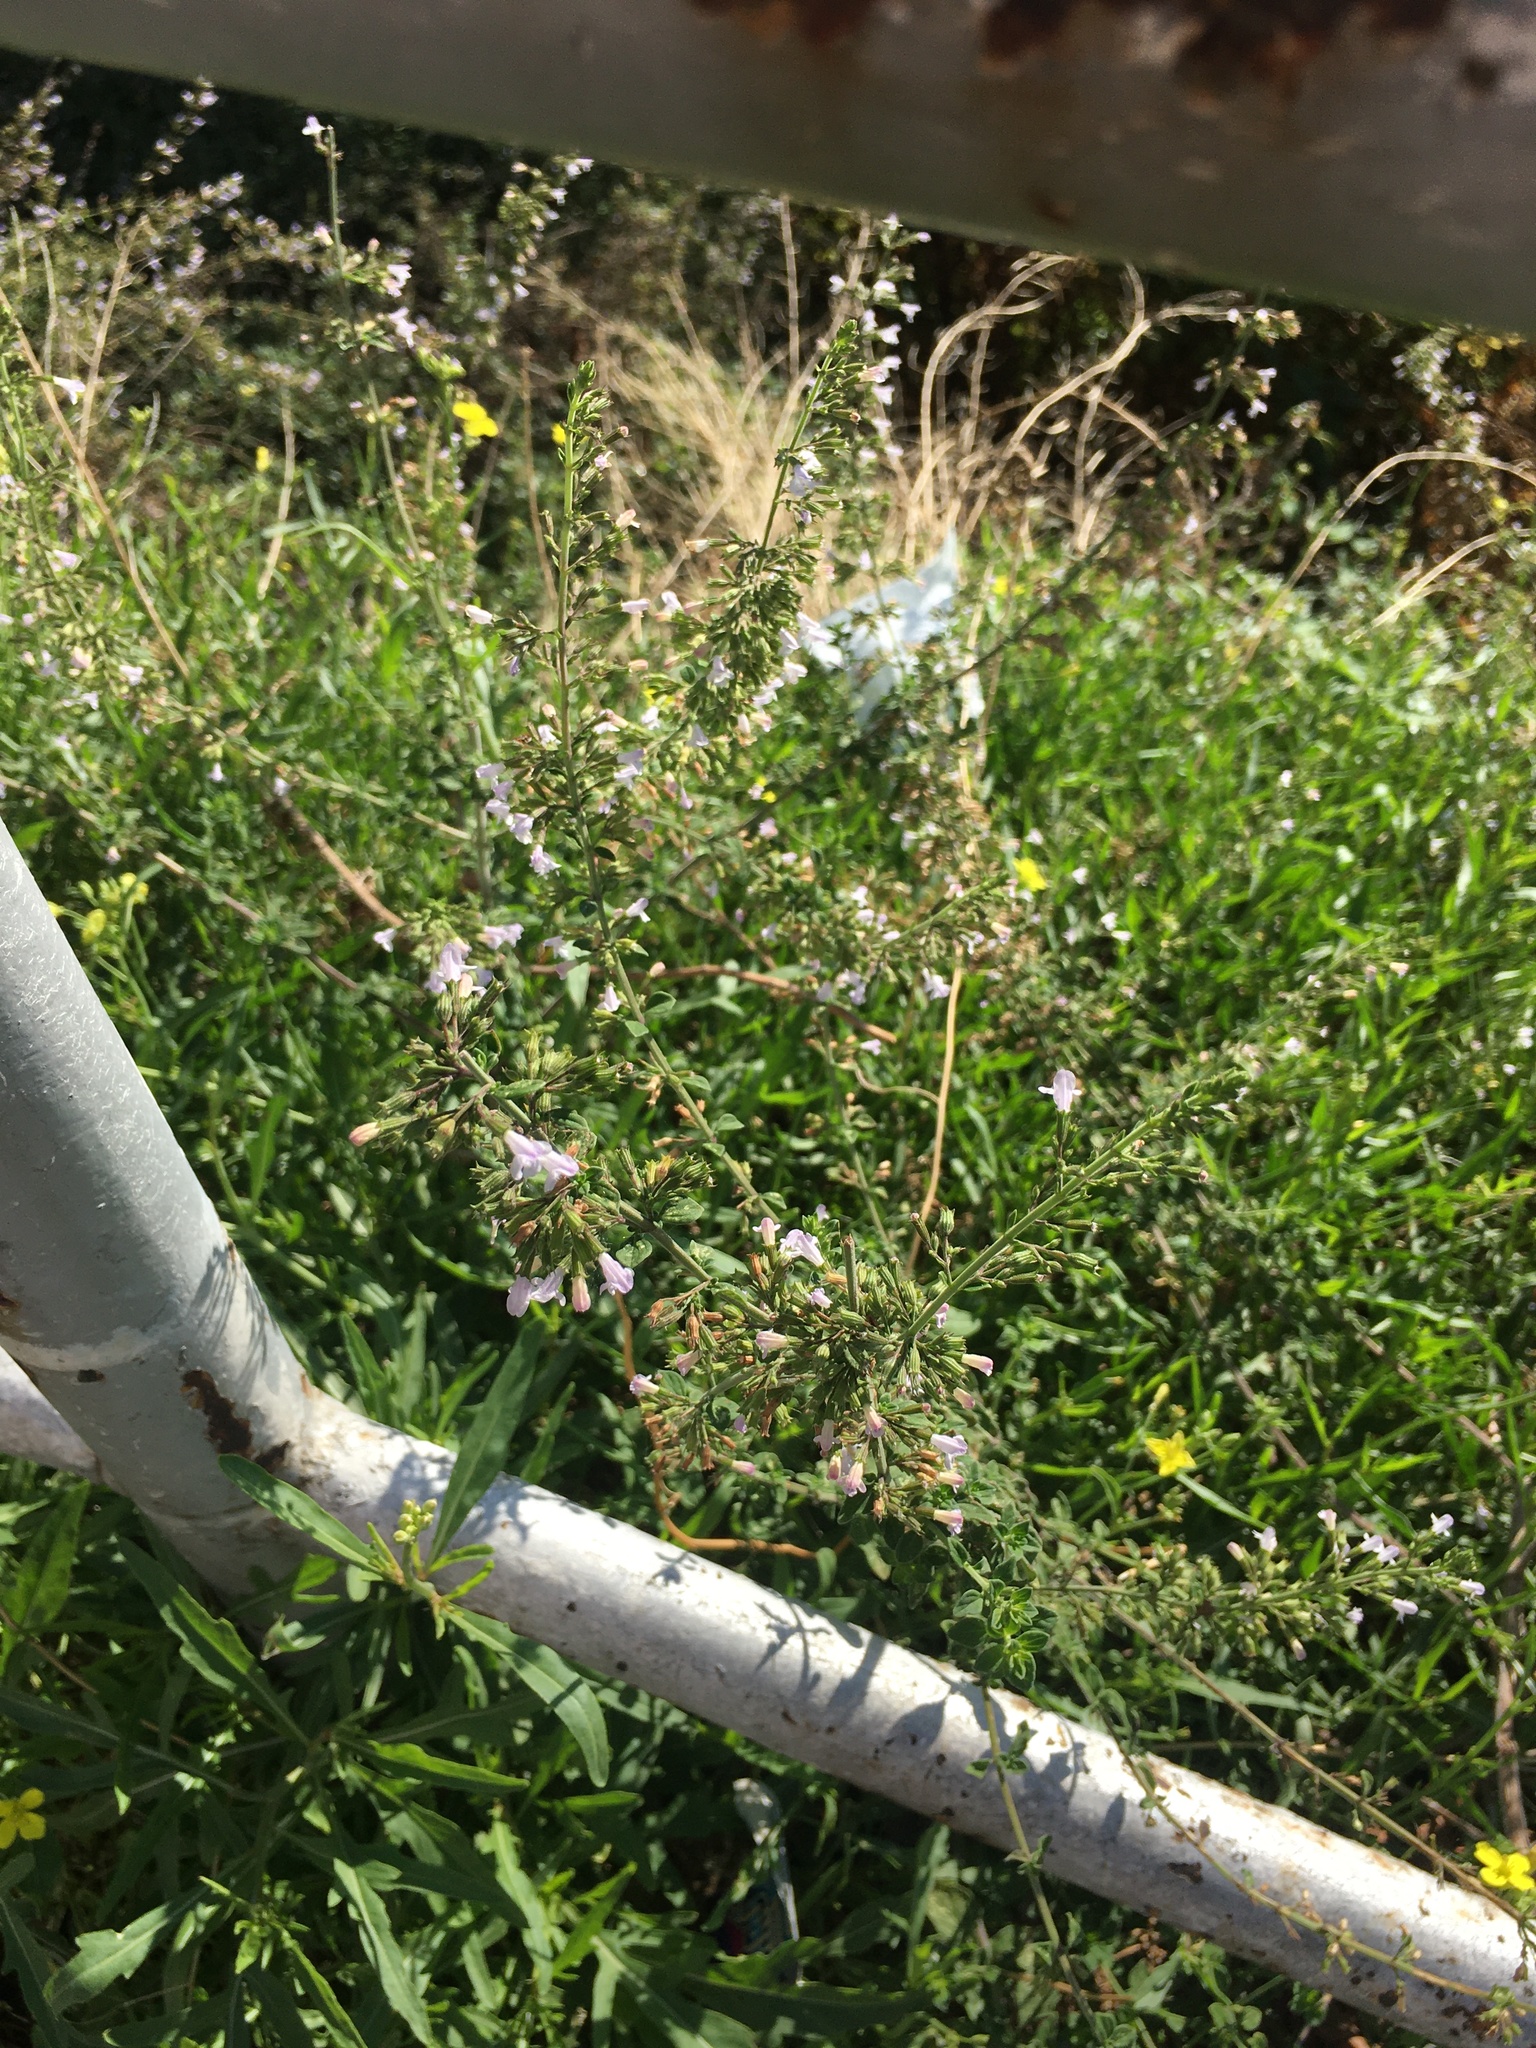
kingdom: Plantae
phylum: Tracheophyta
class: Magnoliopsida
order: Lamiales
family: Lamiaceae
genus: Clinopodium
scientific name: Clinopodium nepeta
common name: Lesser calamint
